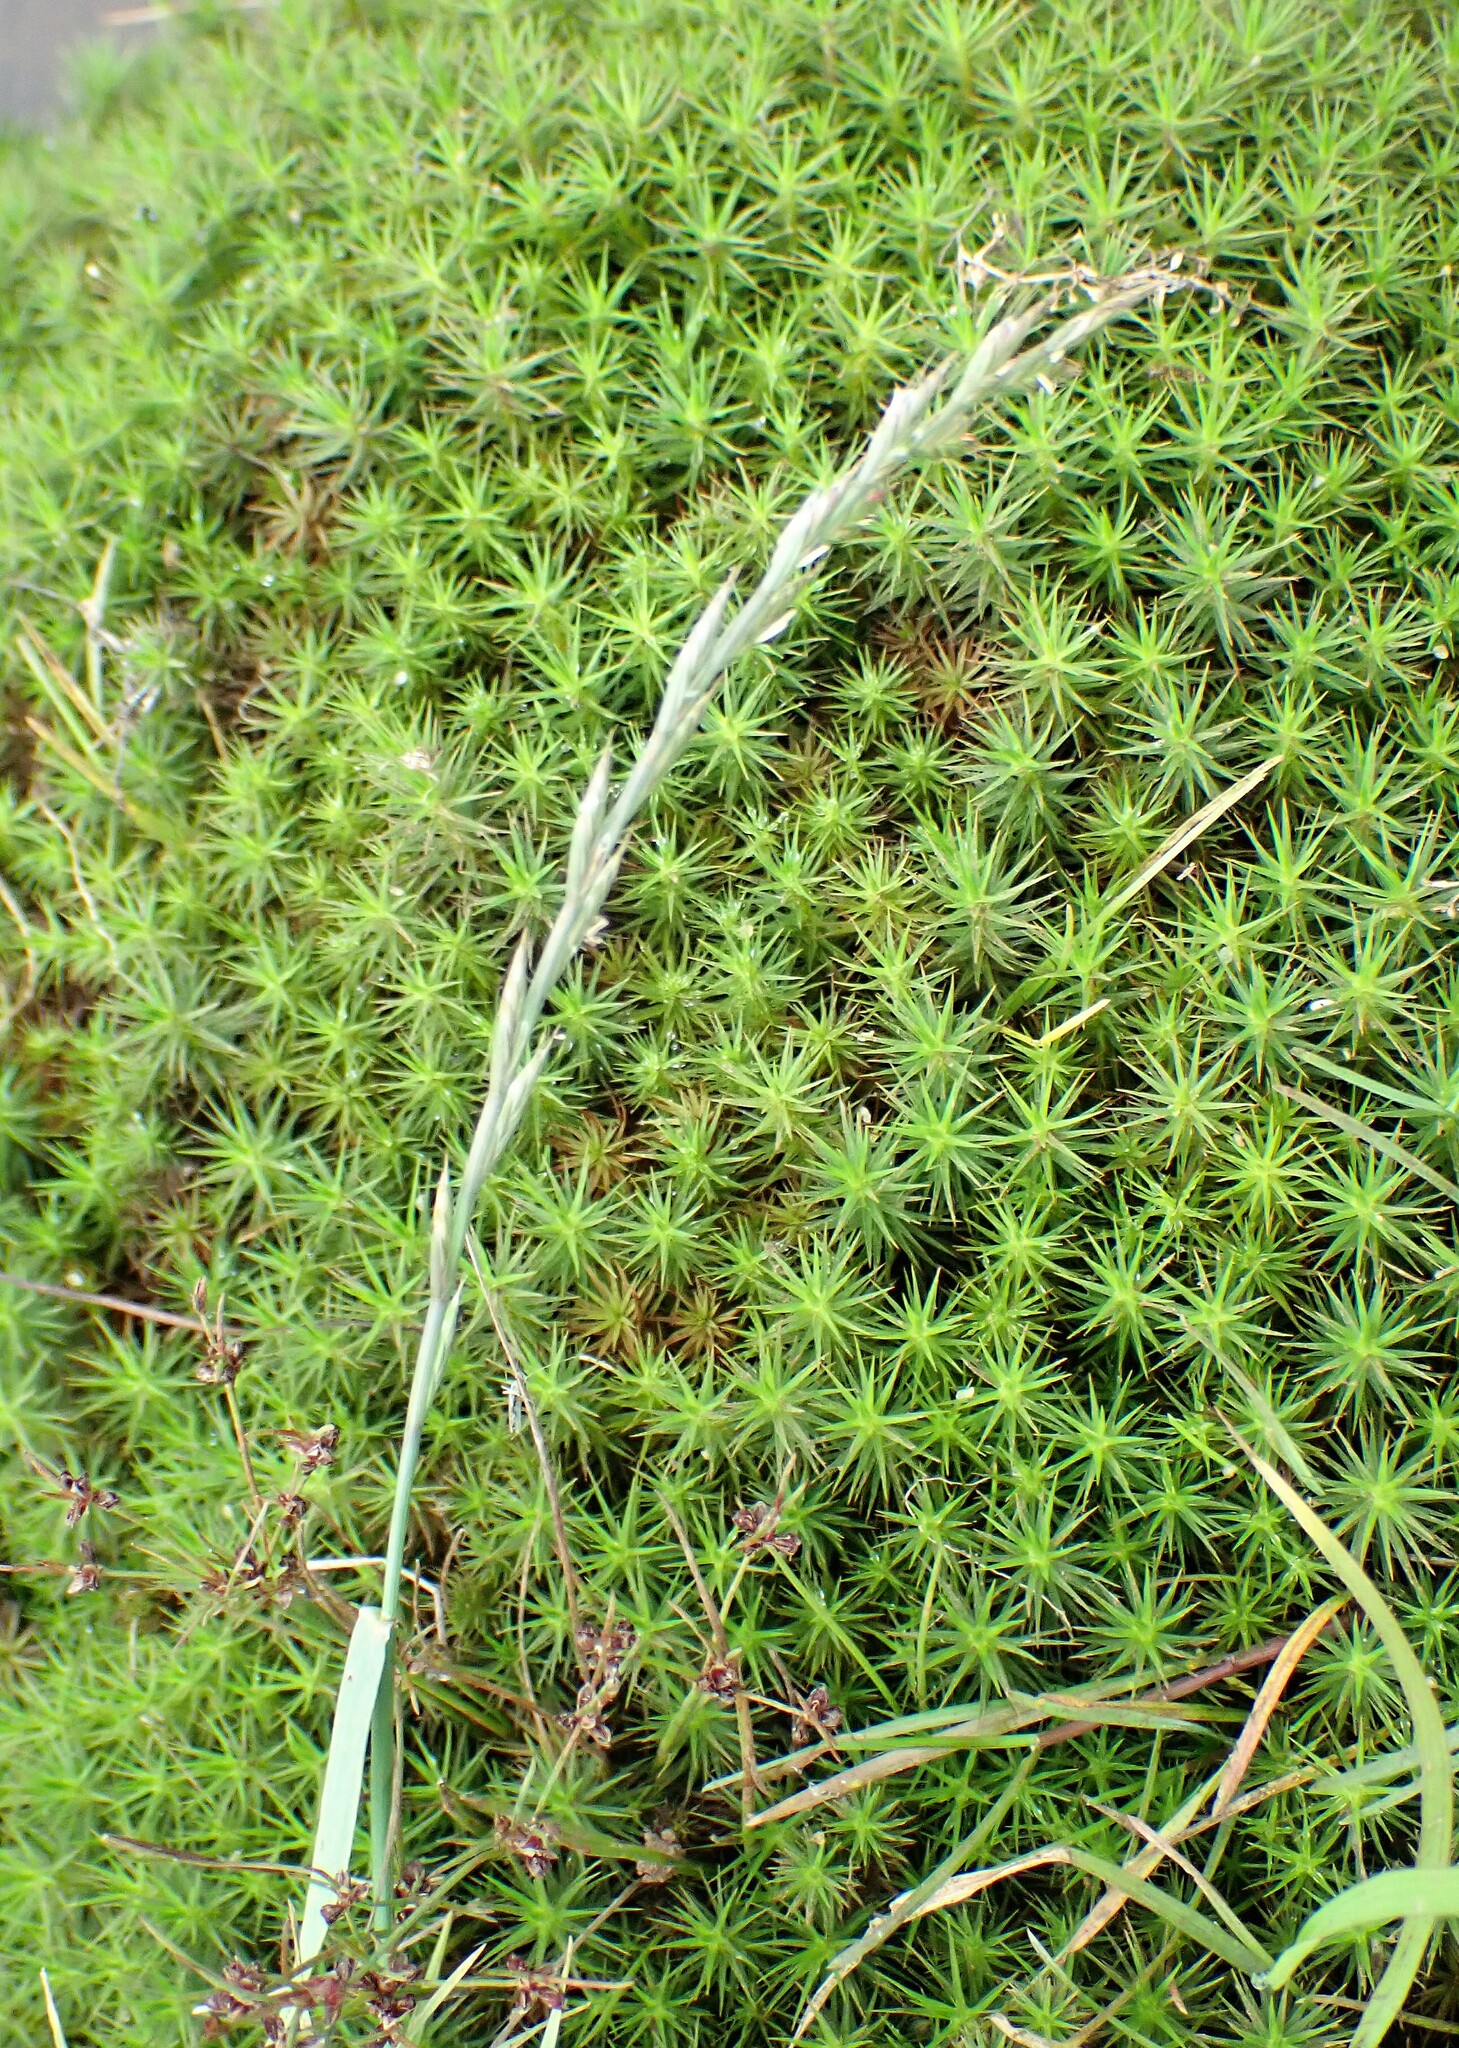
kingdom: Plantae
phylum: Tracheophyta
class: Liliopsida
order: Poales
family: Poaceae
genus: Lolium
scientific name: Lolium multiflorum
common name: Annual ryegrass
